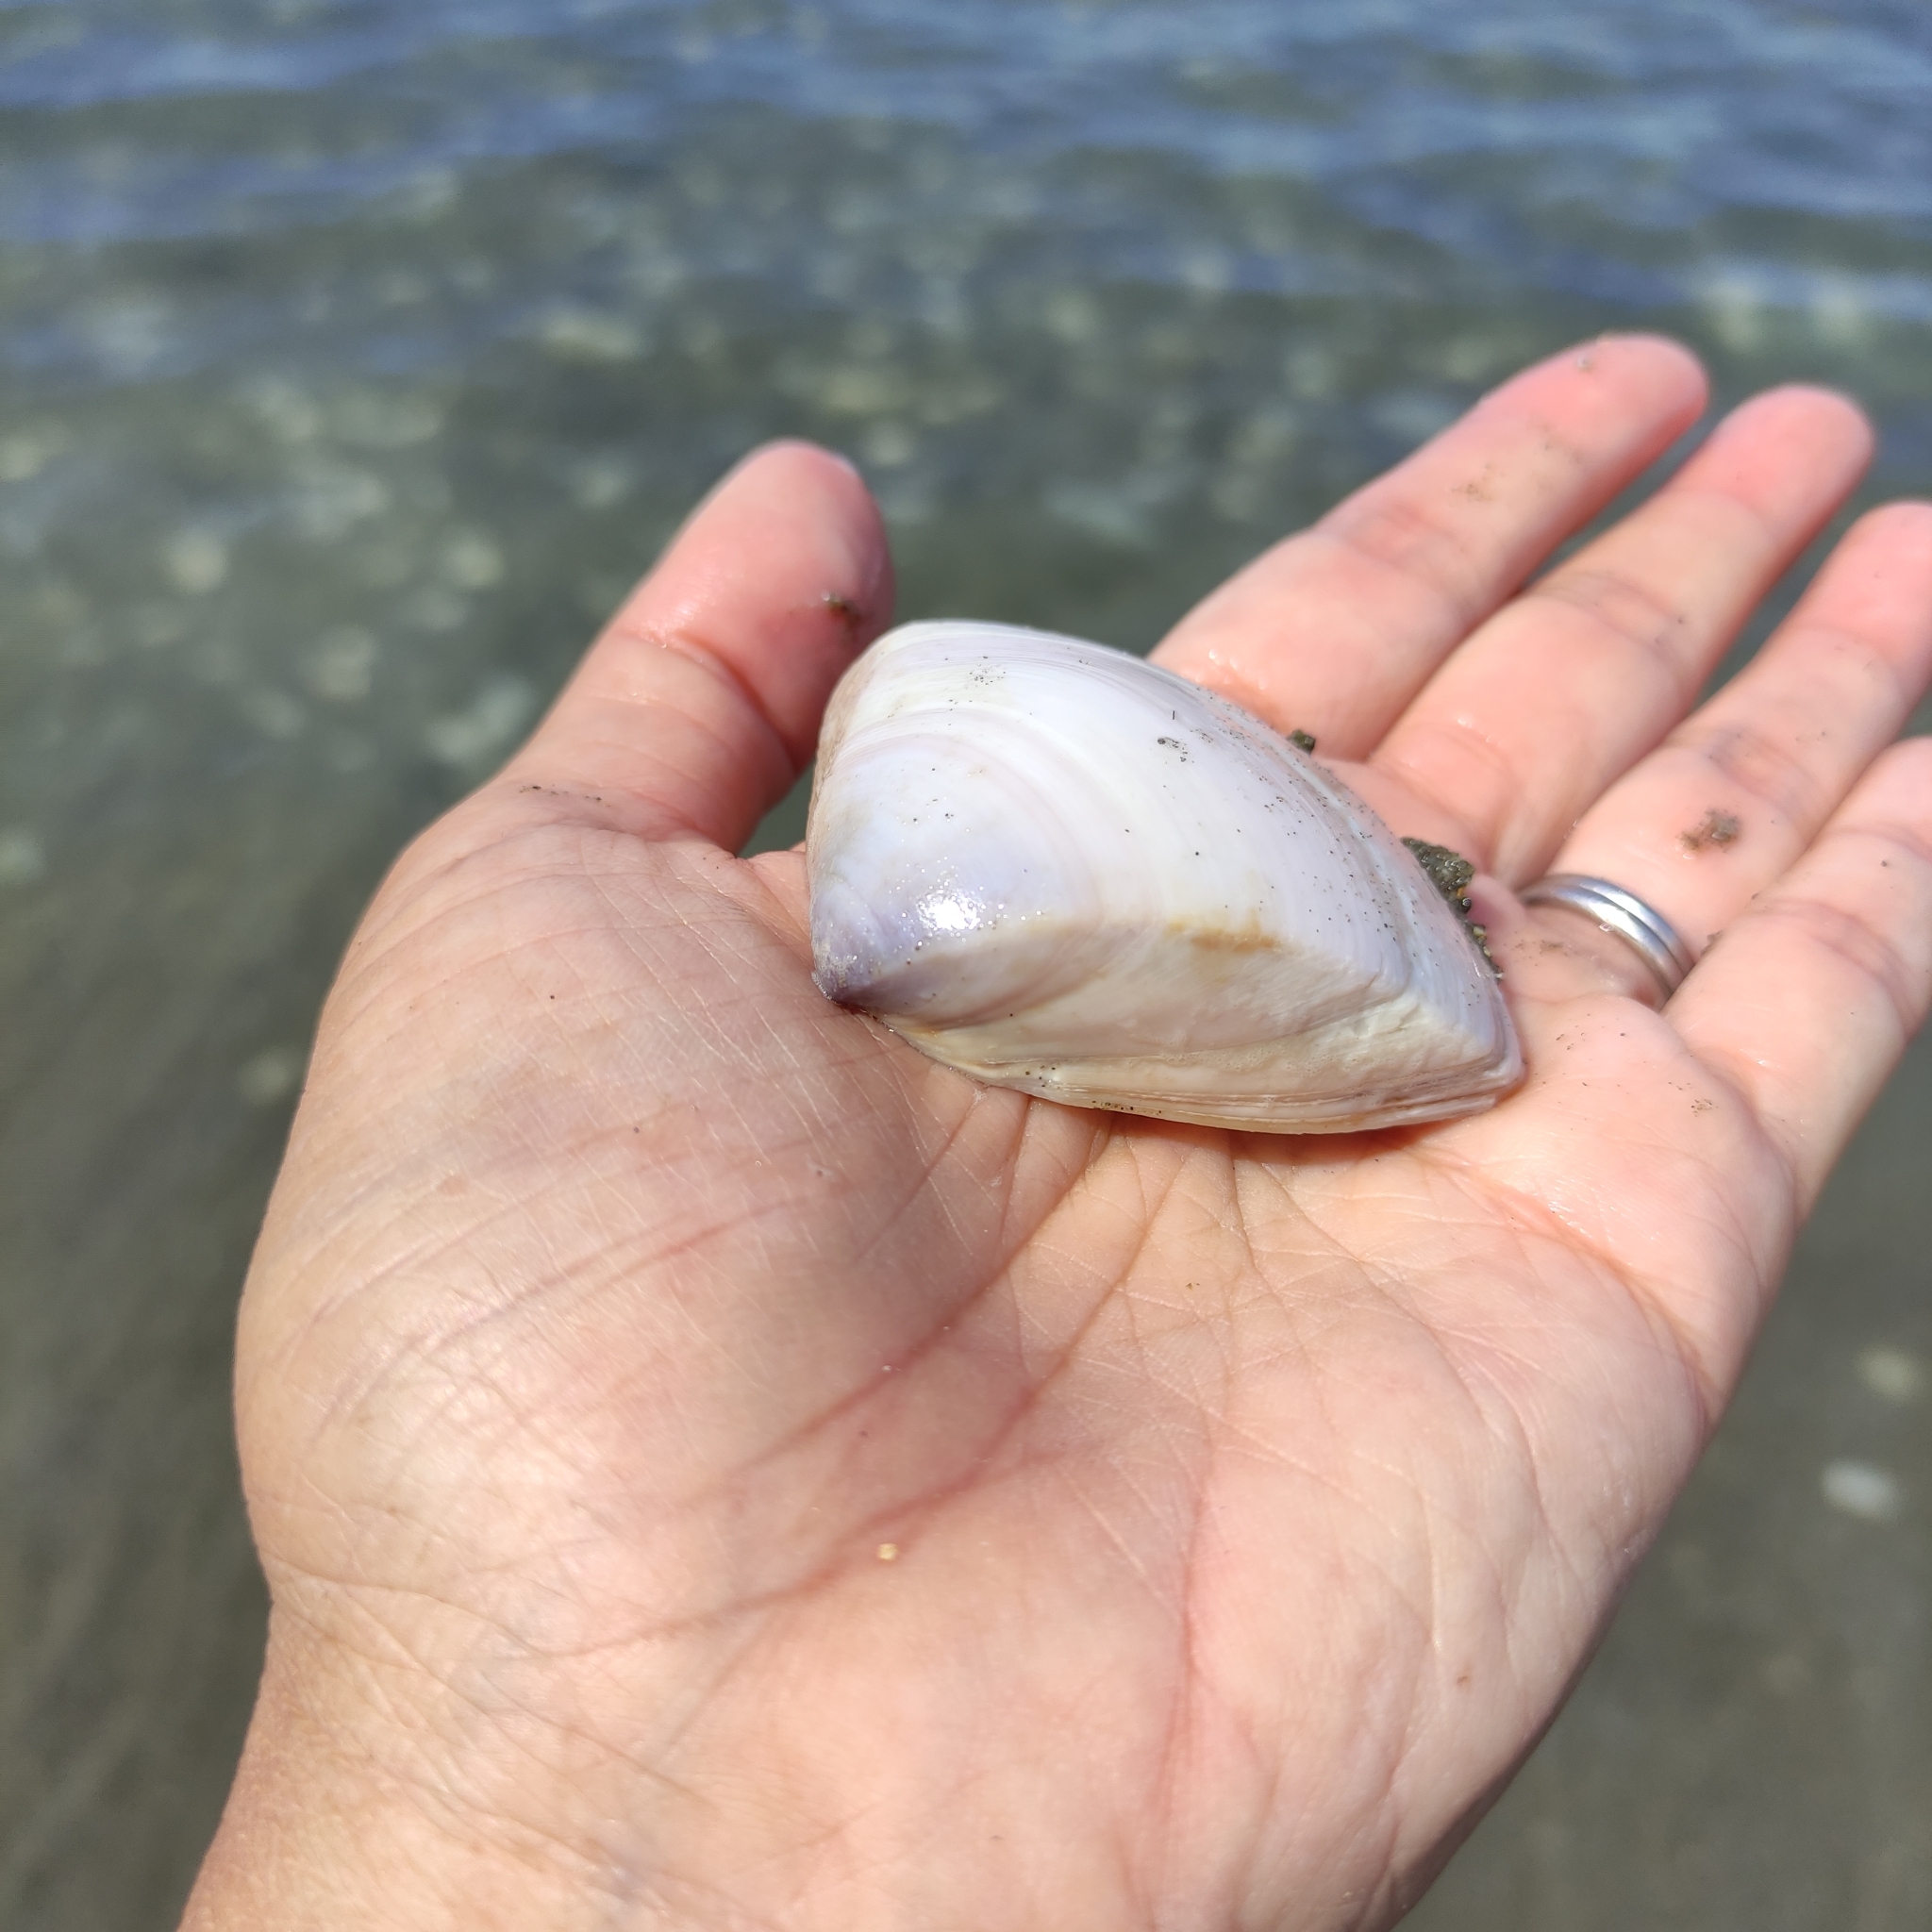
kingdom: Animalia
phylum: Mollusca
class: Bivalvia
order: Venerida
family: Mactridae
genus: Crassula
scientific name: Crassula aequilatera
